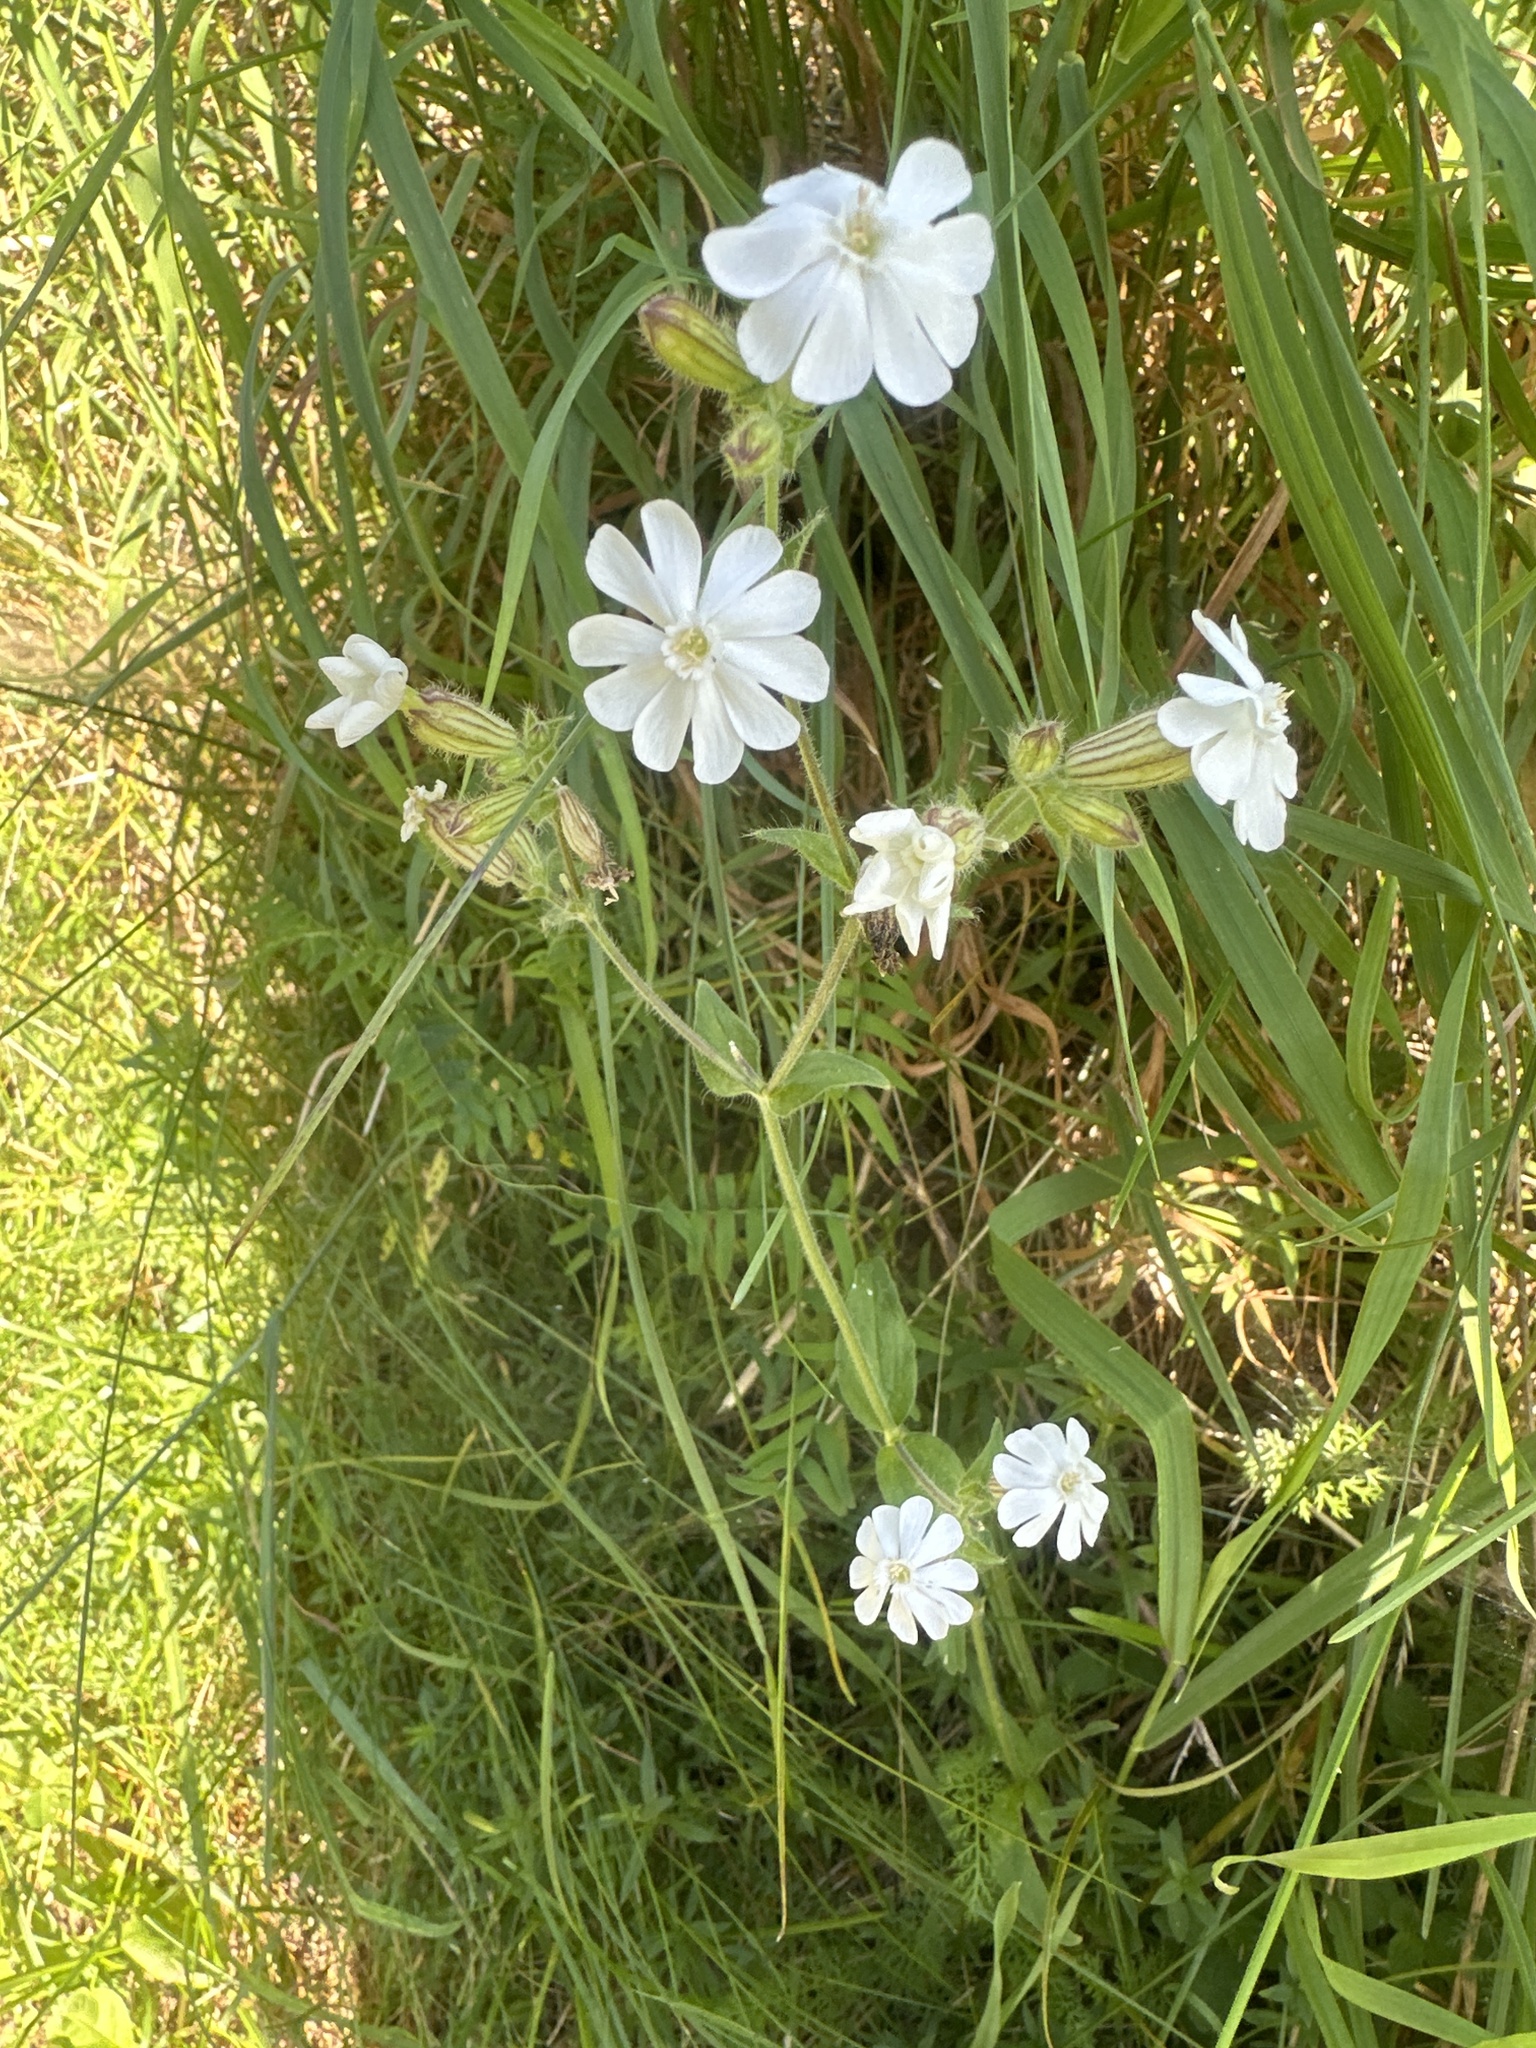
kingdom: Plantae
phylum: Tracheophyta
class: Magnoliopsida
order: Caryophyllales
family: Caryophyllaceae
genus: Silene
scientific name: Silene latifolia
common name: White campion
